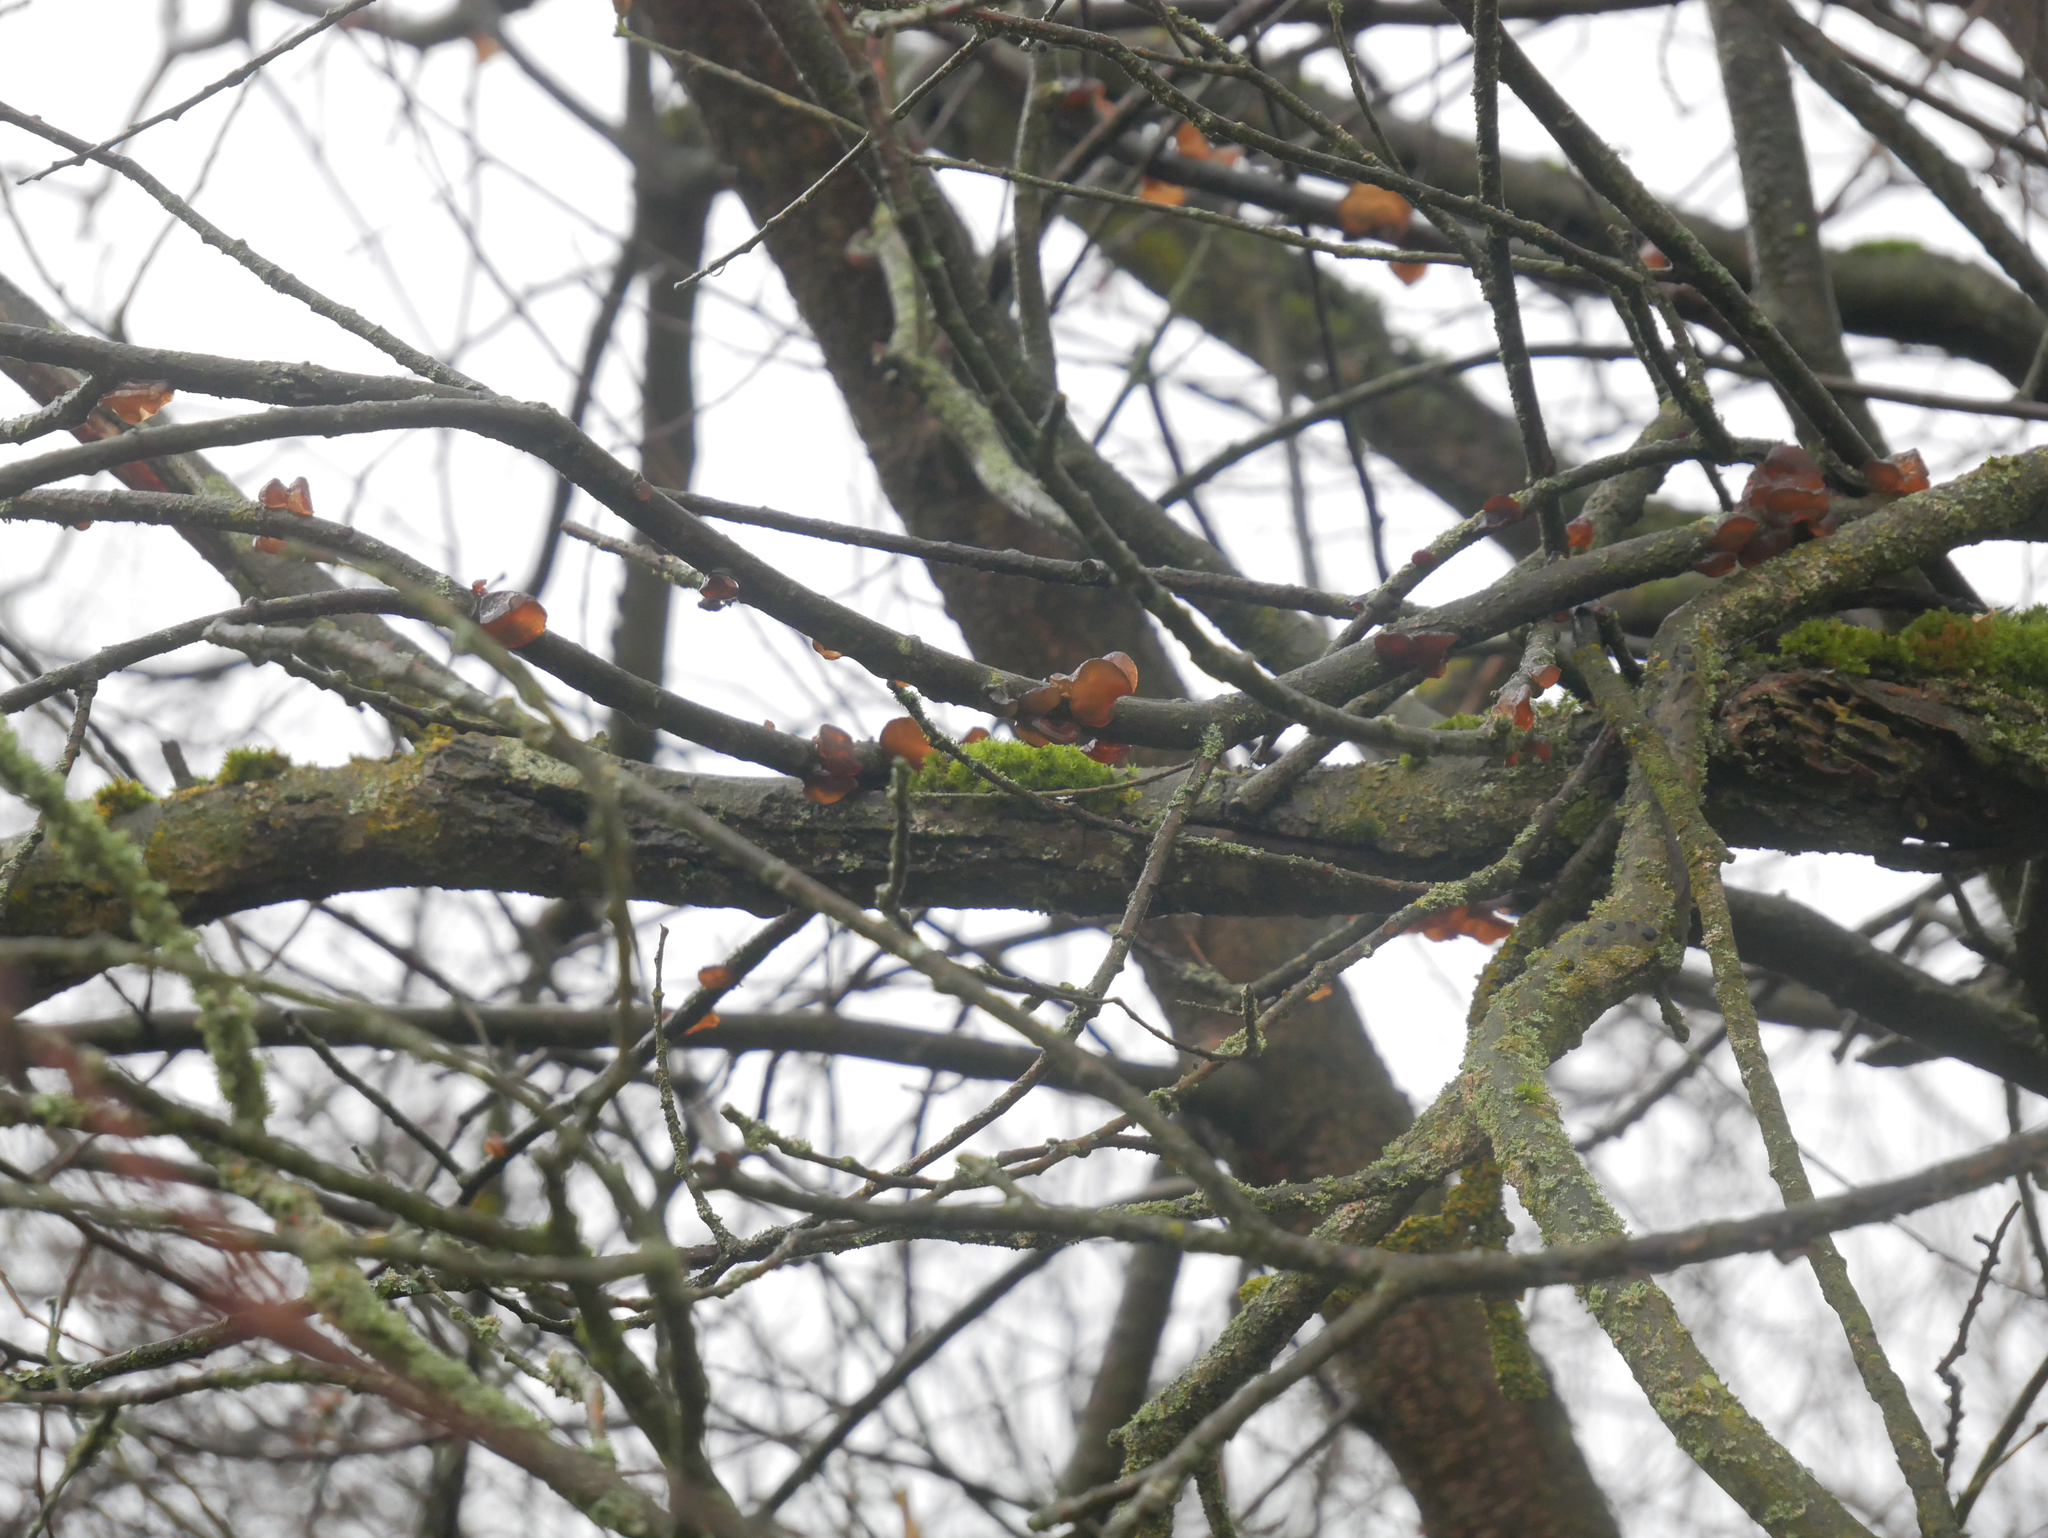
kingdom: Fungi
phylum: Basidiomycota
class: Agaricomycetes
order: Auriculariales
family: Auriculariaceae
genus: Auricularia
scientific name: Auricularia auricula-judae
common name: Jelly ear
